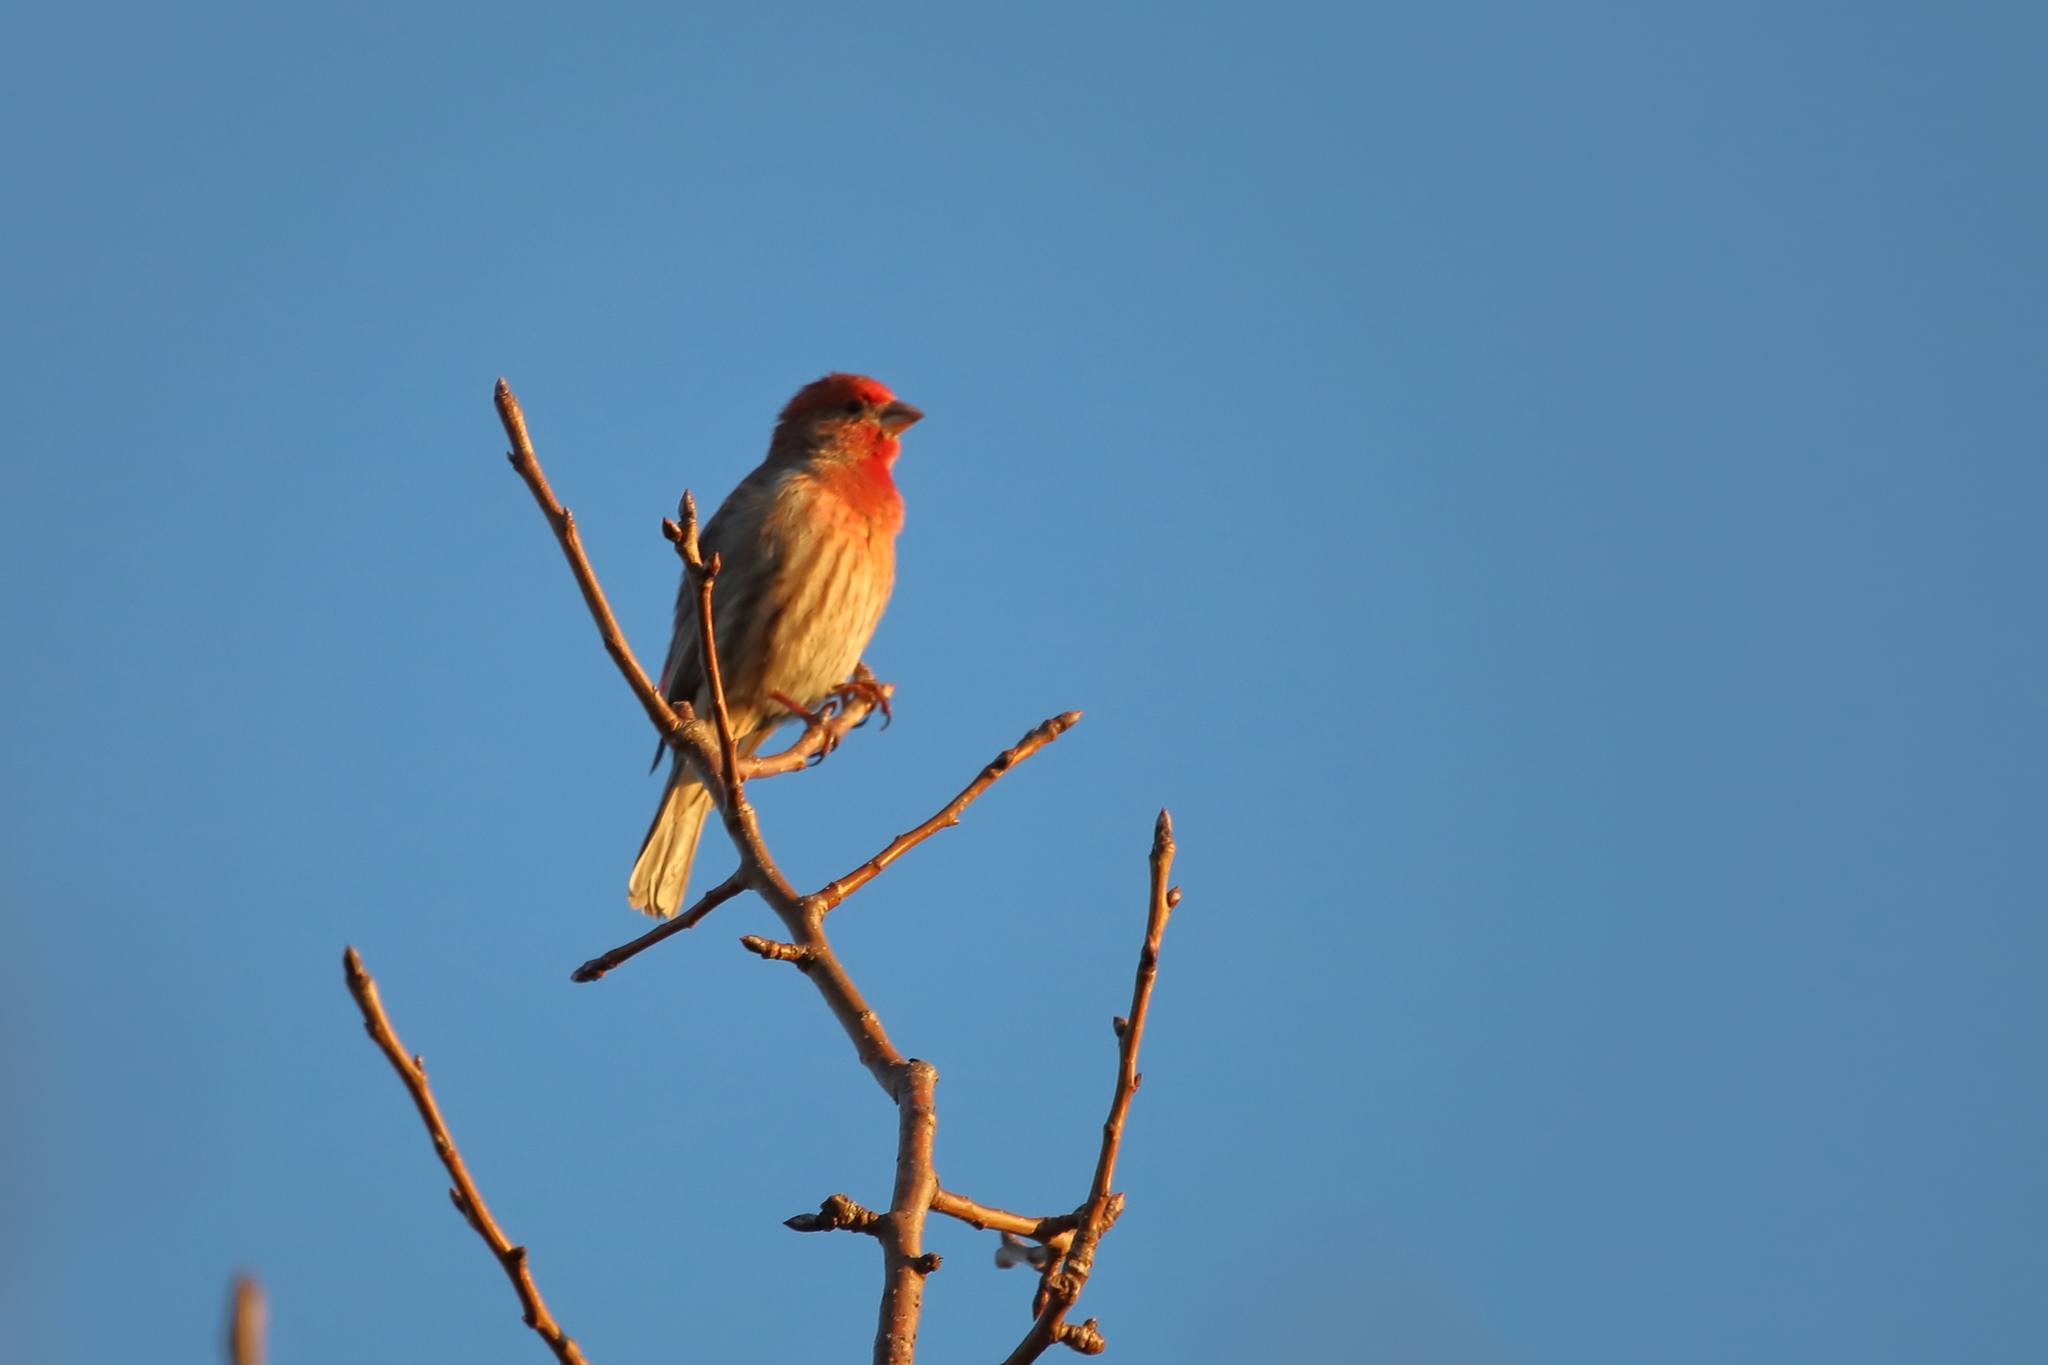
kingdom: Animalia
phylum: Chordata
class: Aves
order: Passeriformes
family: Fringillidae
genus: Haemorhous
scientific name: Haemorhous mexicanus
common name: House finch
